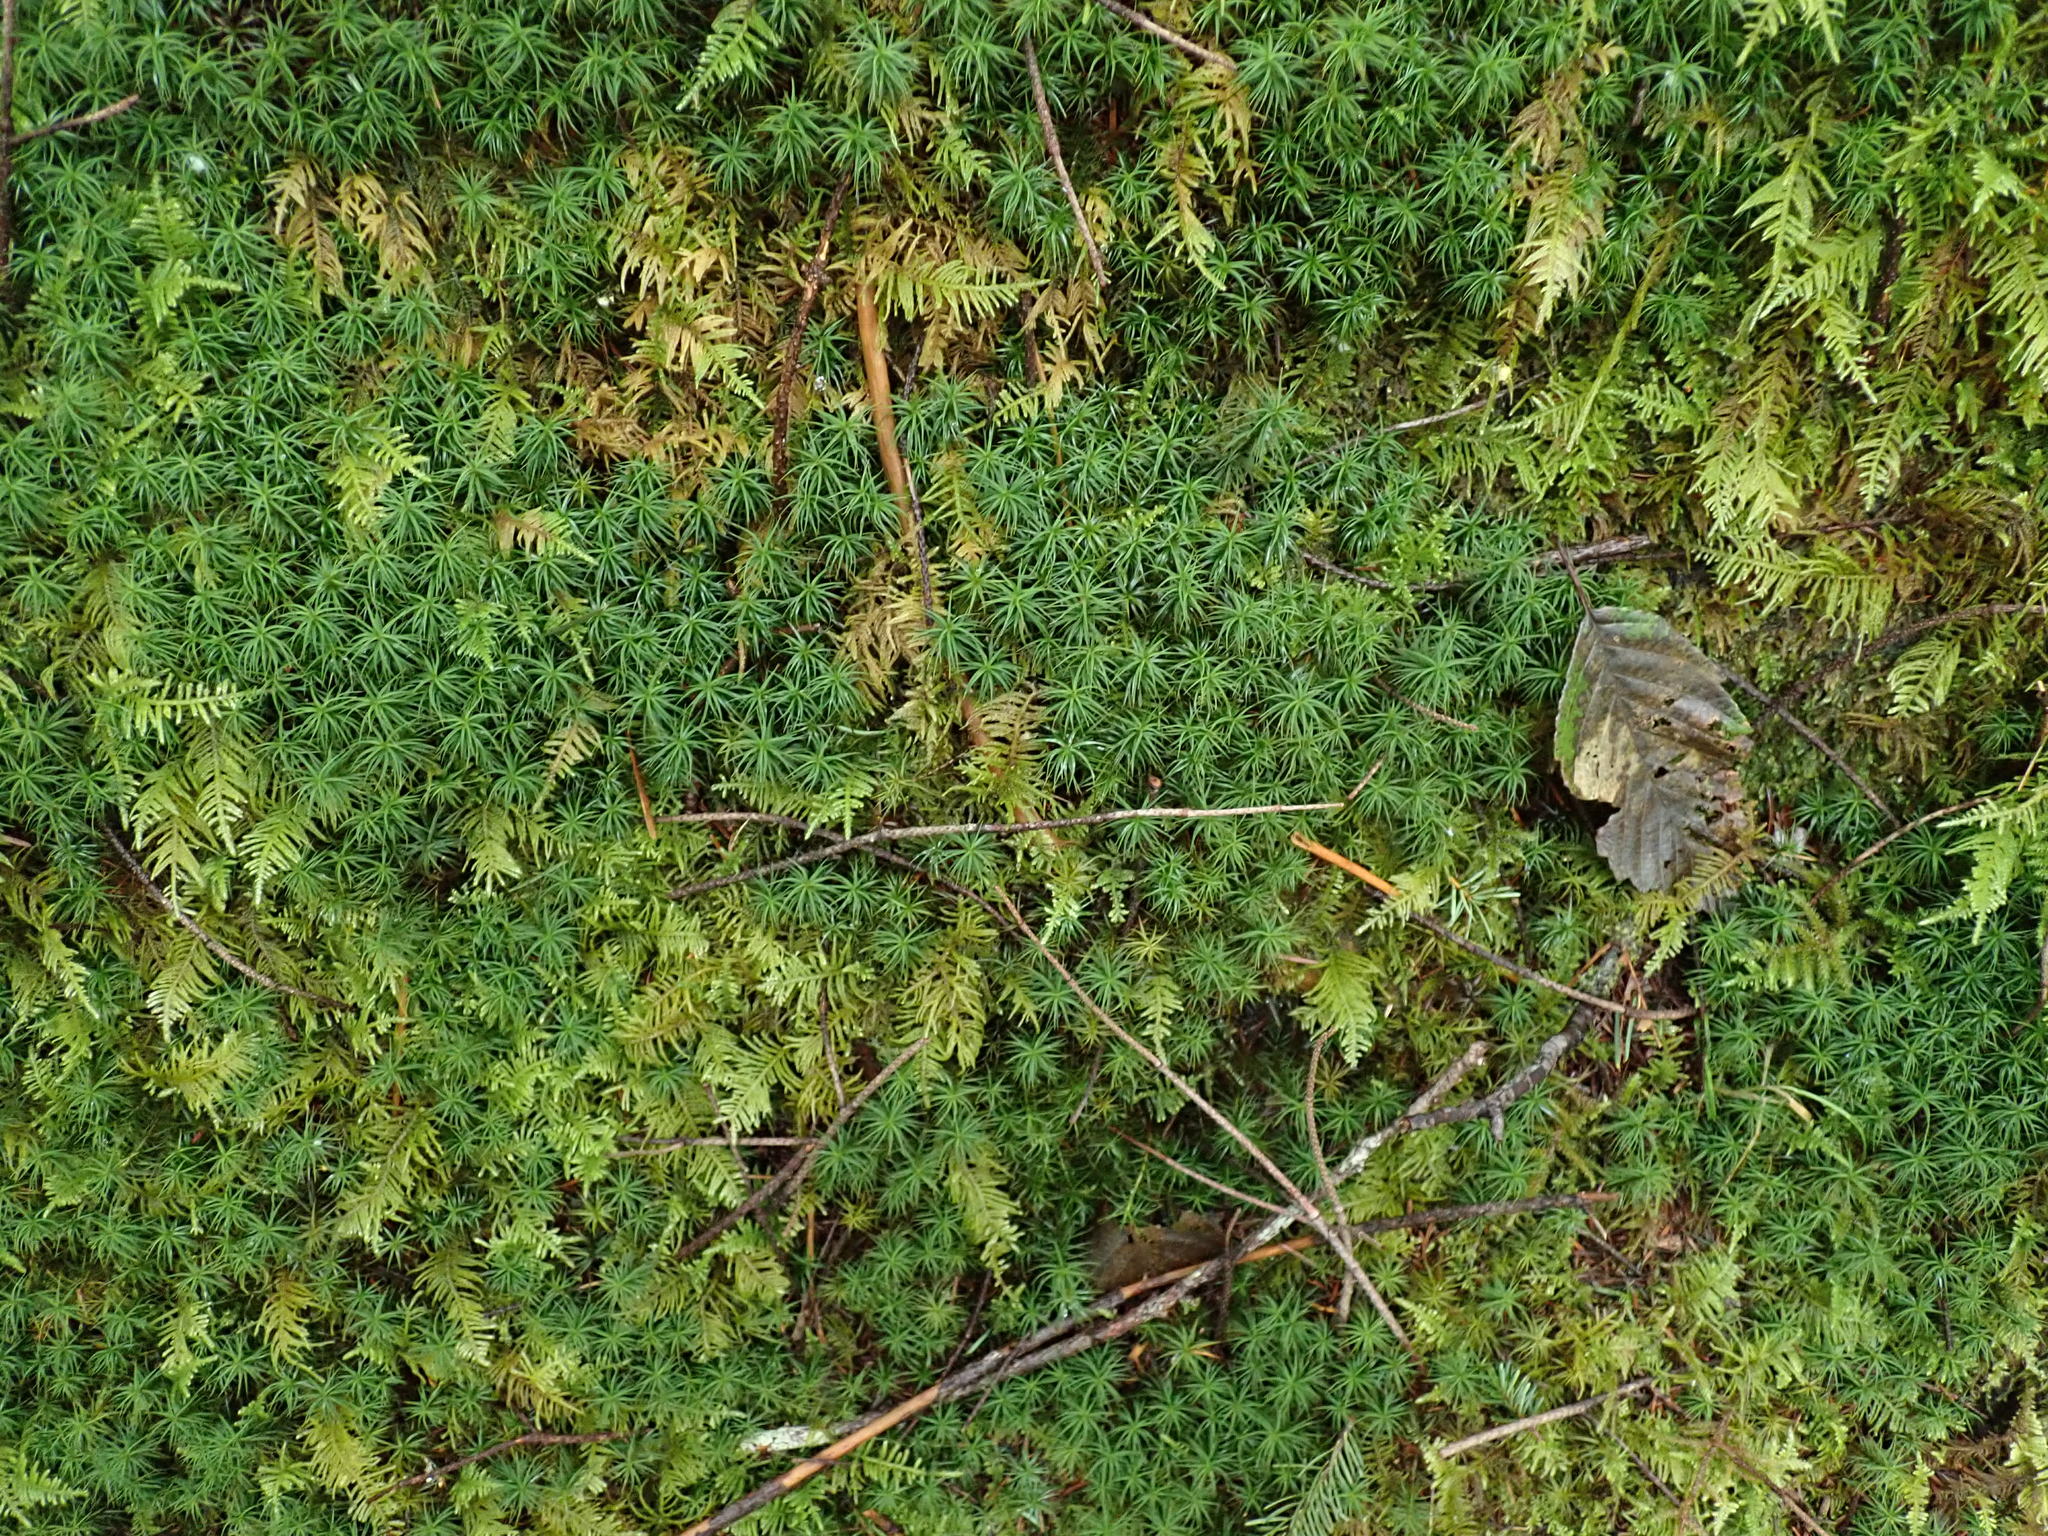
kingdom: Plantae
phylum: Bryophyta
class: Polytrichopsida
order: Polytrichales
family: Polytrichaceae
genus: Polytrichastrum
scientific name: Polytrichastrum alpinum
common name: Alpine haircap
